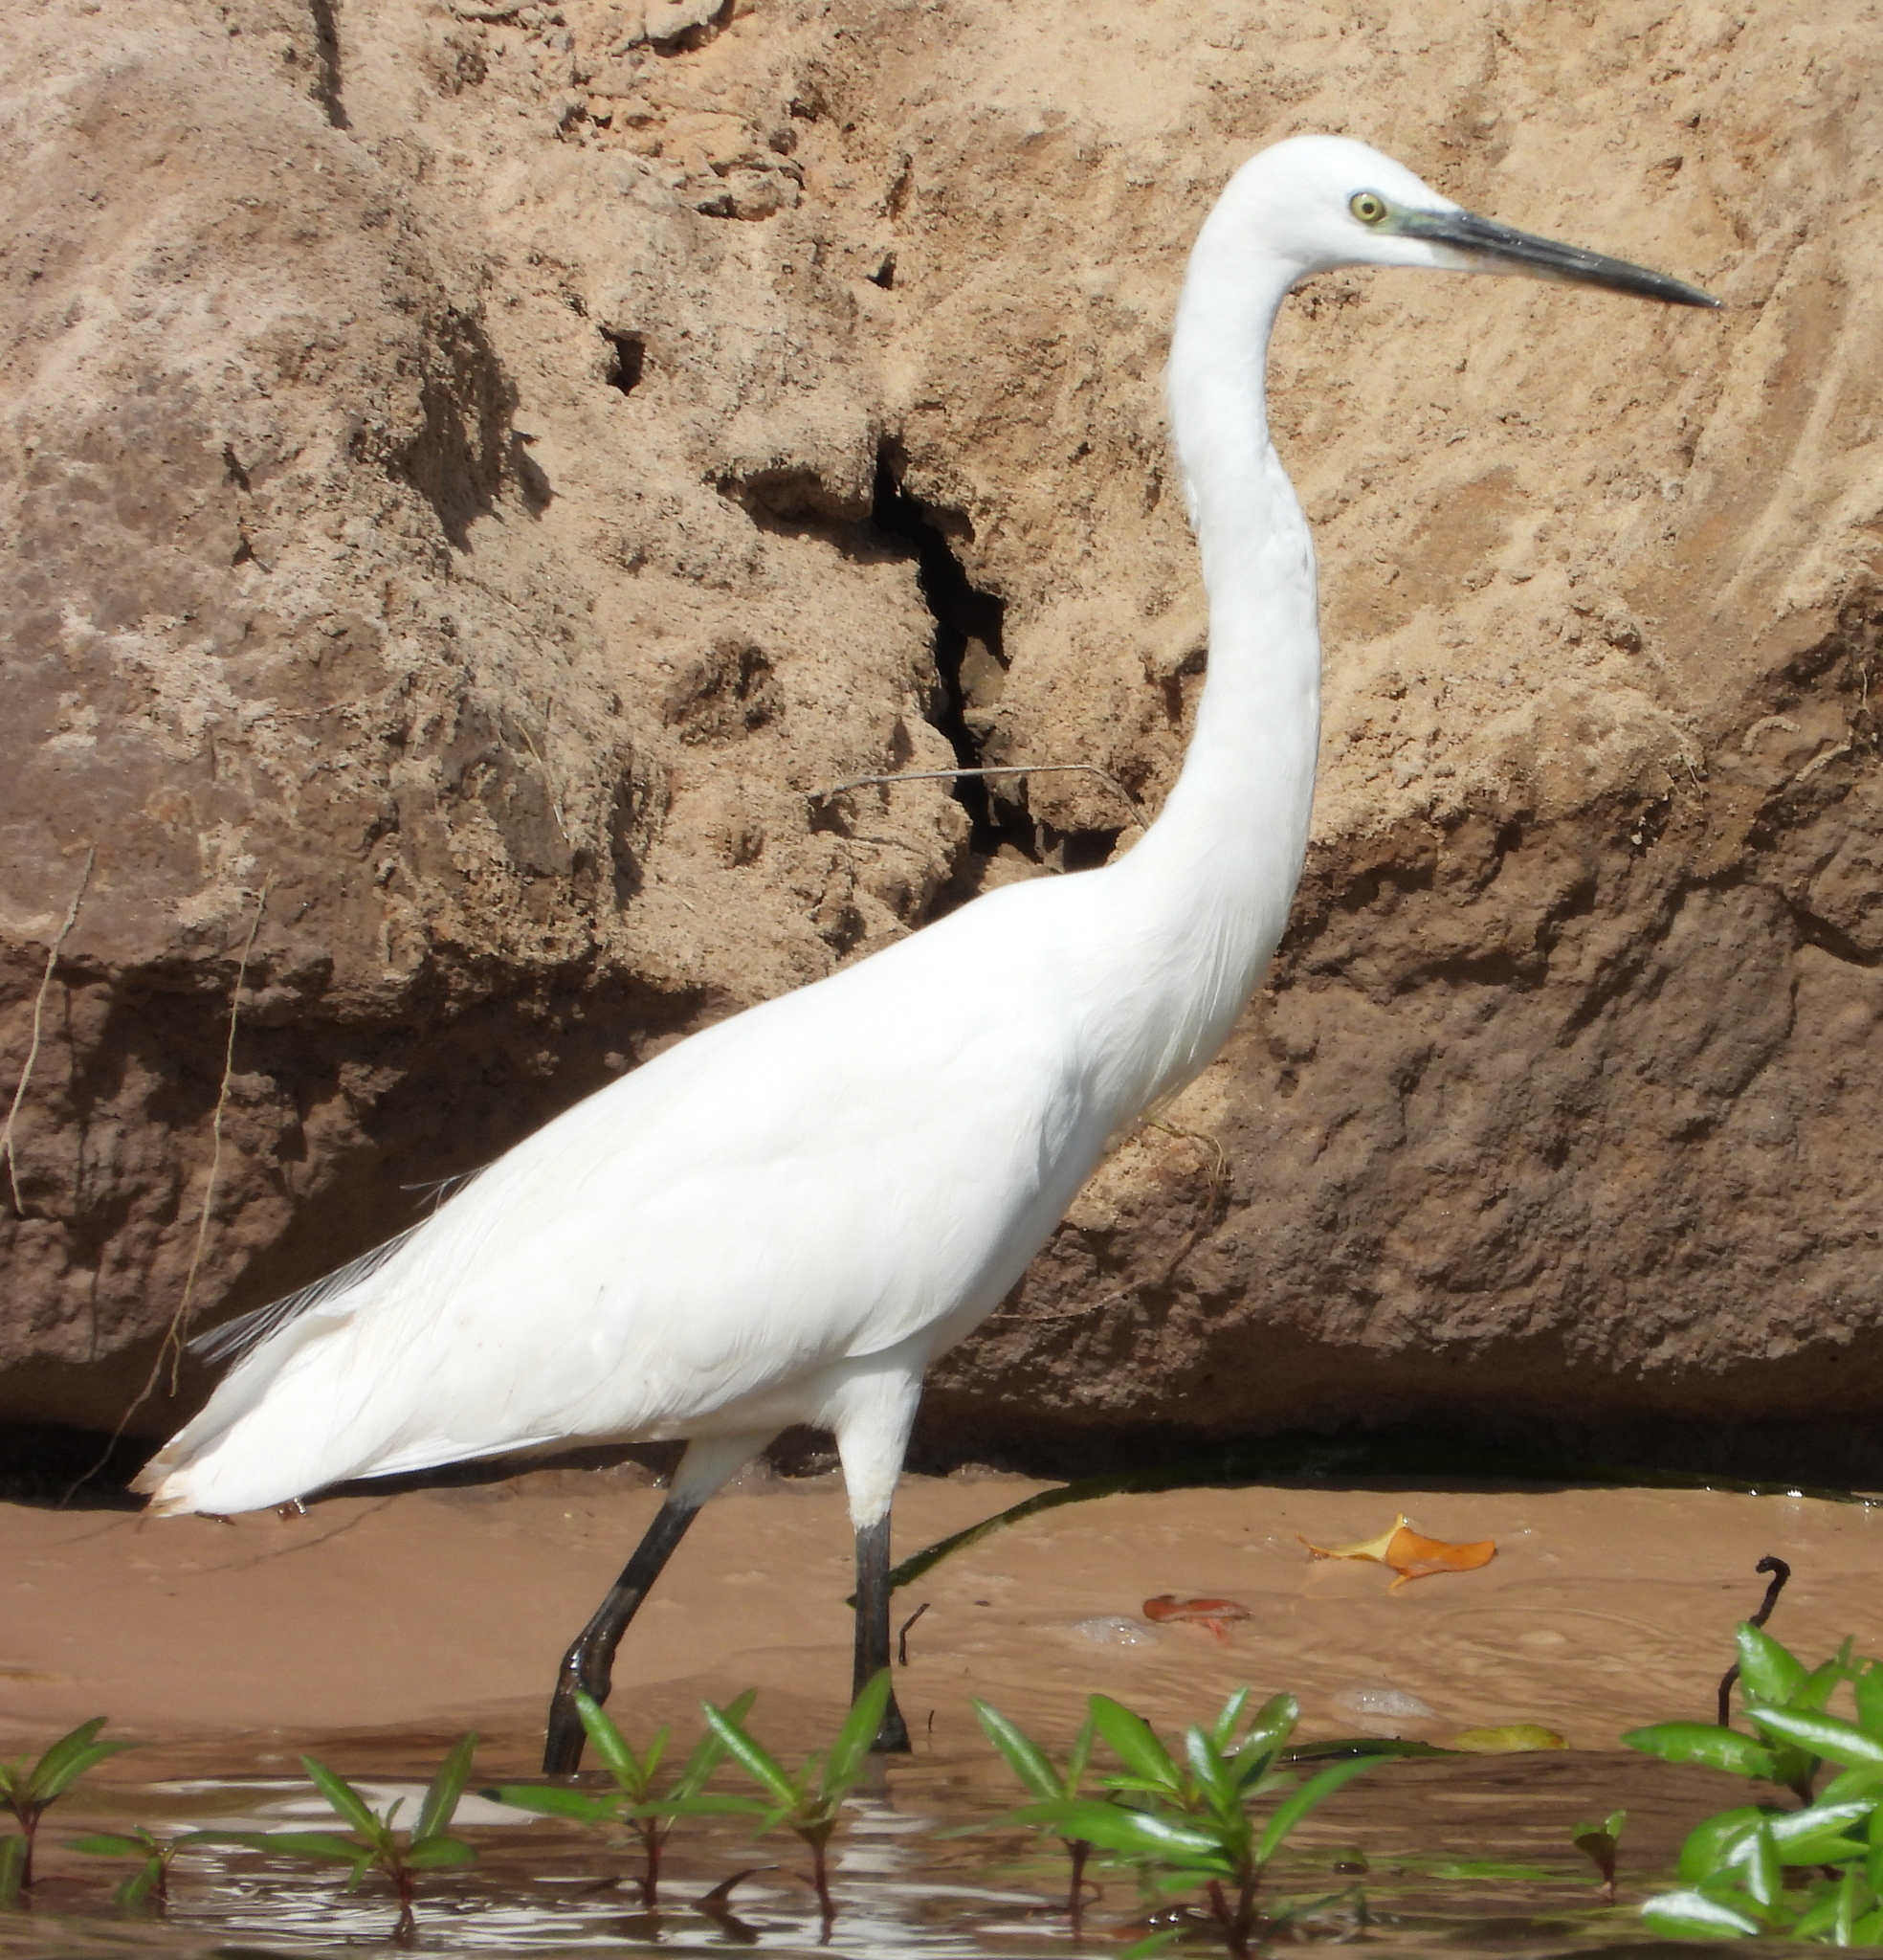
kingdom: Animalia
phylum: Chordata
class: Aves
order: Pelecaniformes
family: Ardeidae
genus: Egretta
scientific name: Egretta garzetta
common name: Little egret
